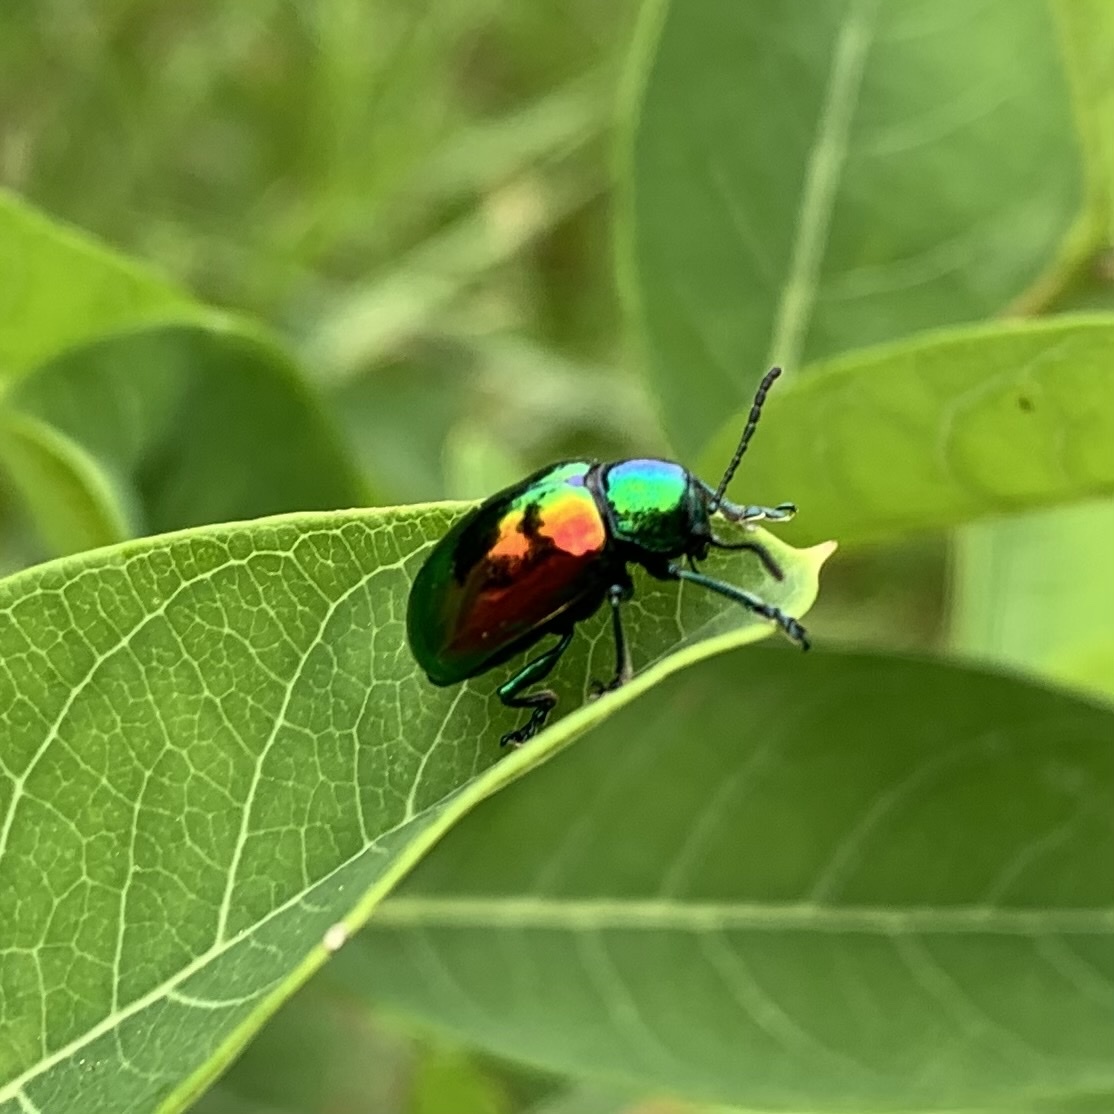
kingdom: Animalia
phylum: Arthropoda
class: Insecta
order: Coleoptera
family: Chrysomelidae
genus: Chrysochus
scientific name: Chrysochus auratus
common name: Dogbane leaf beetle
